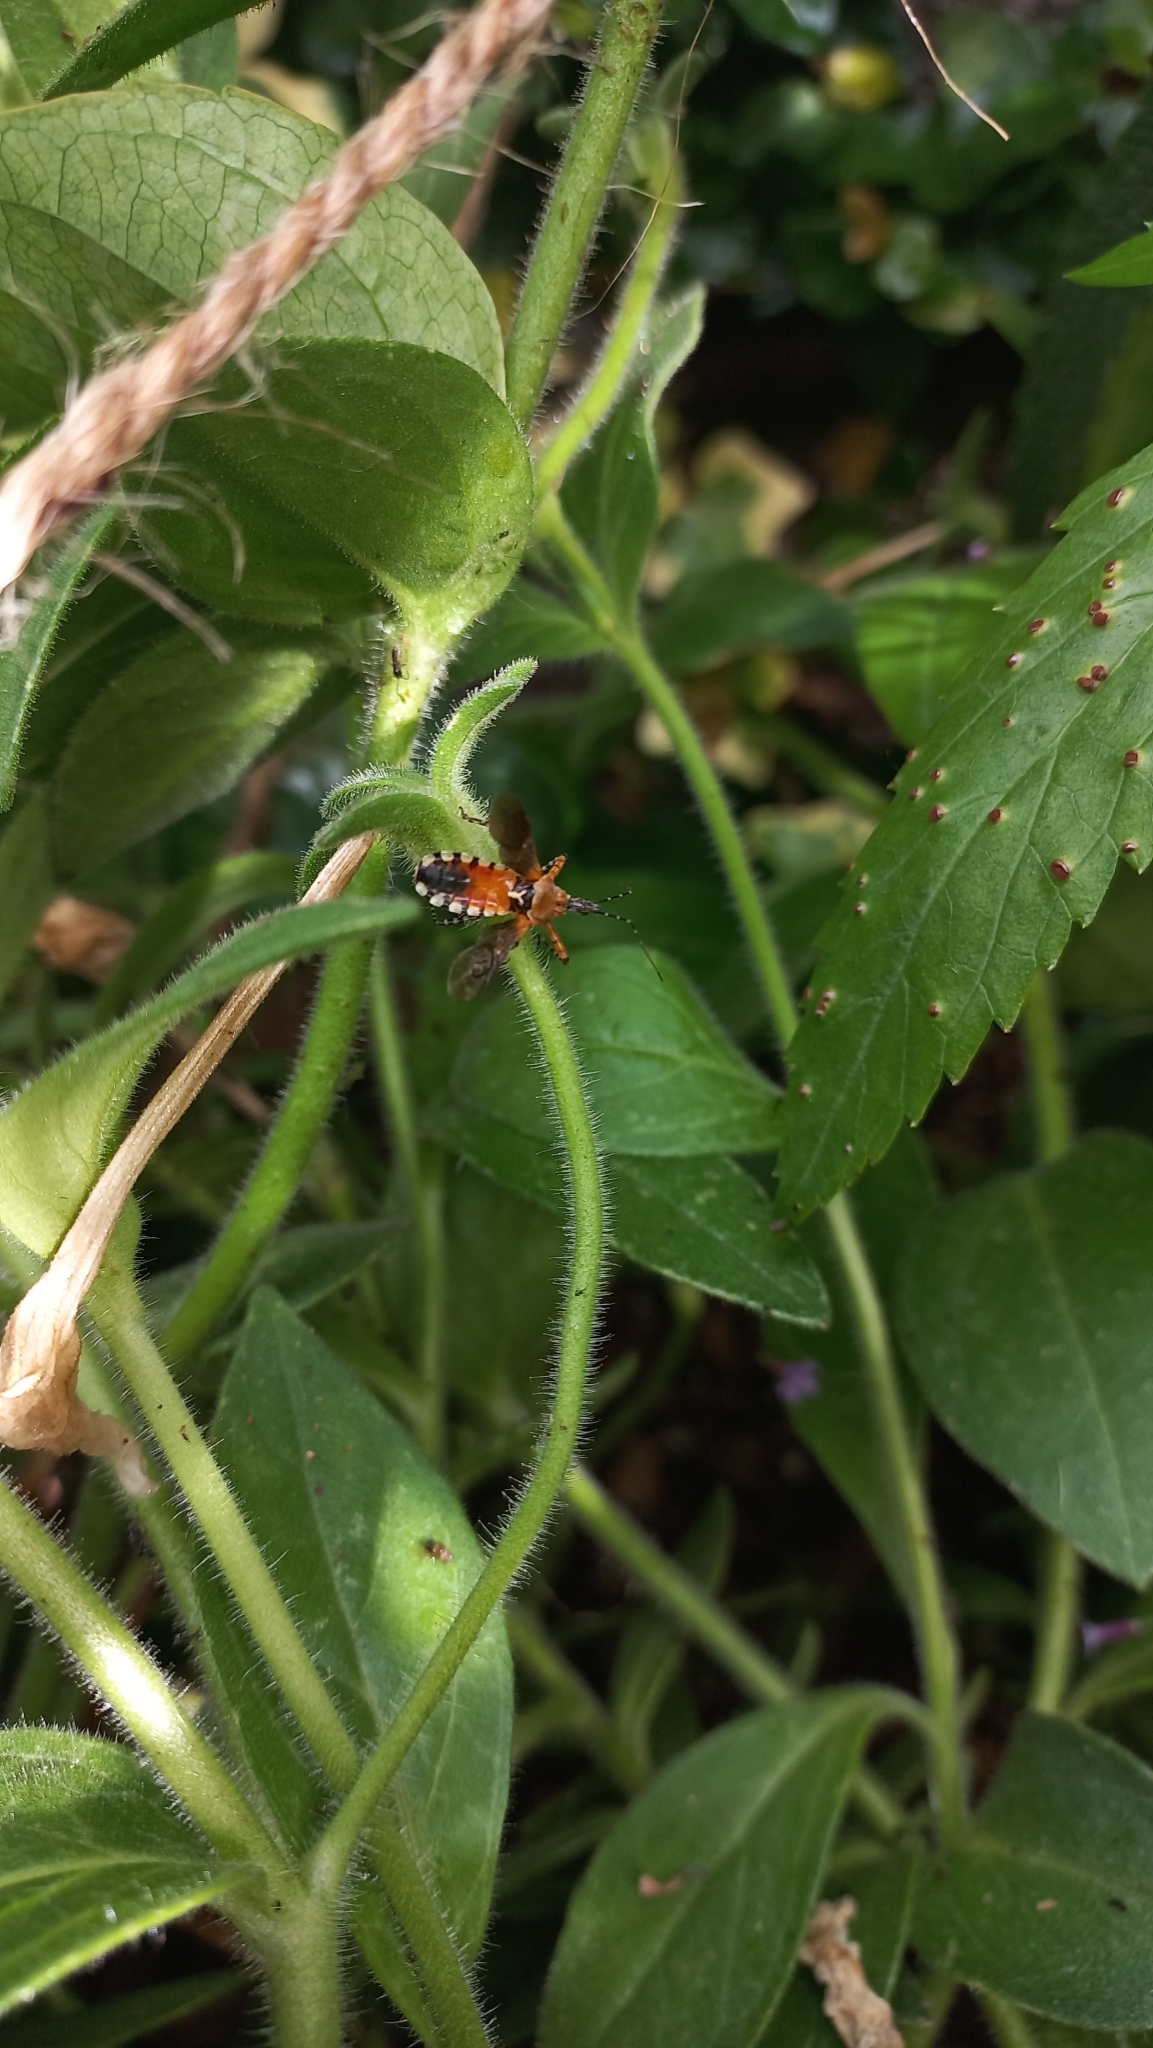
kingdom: Animalia
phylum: Arthropoda
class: Insecta
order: Hemiptera
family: Reduviidae
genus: Cosmoclopius
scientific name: Cosmoclopius nigroannulatus
